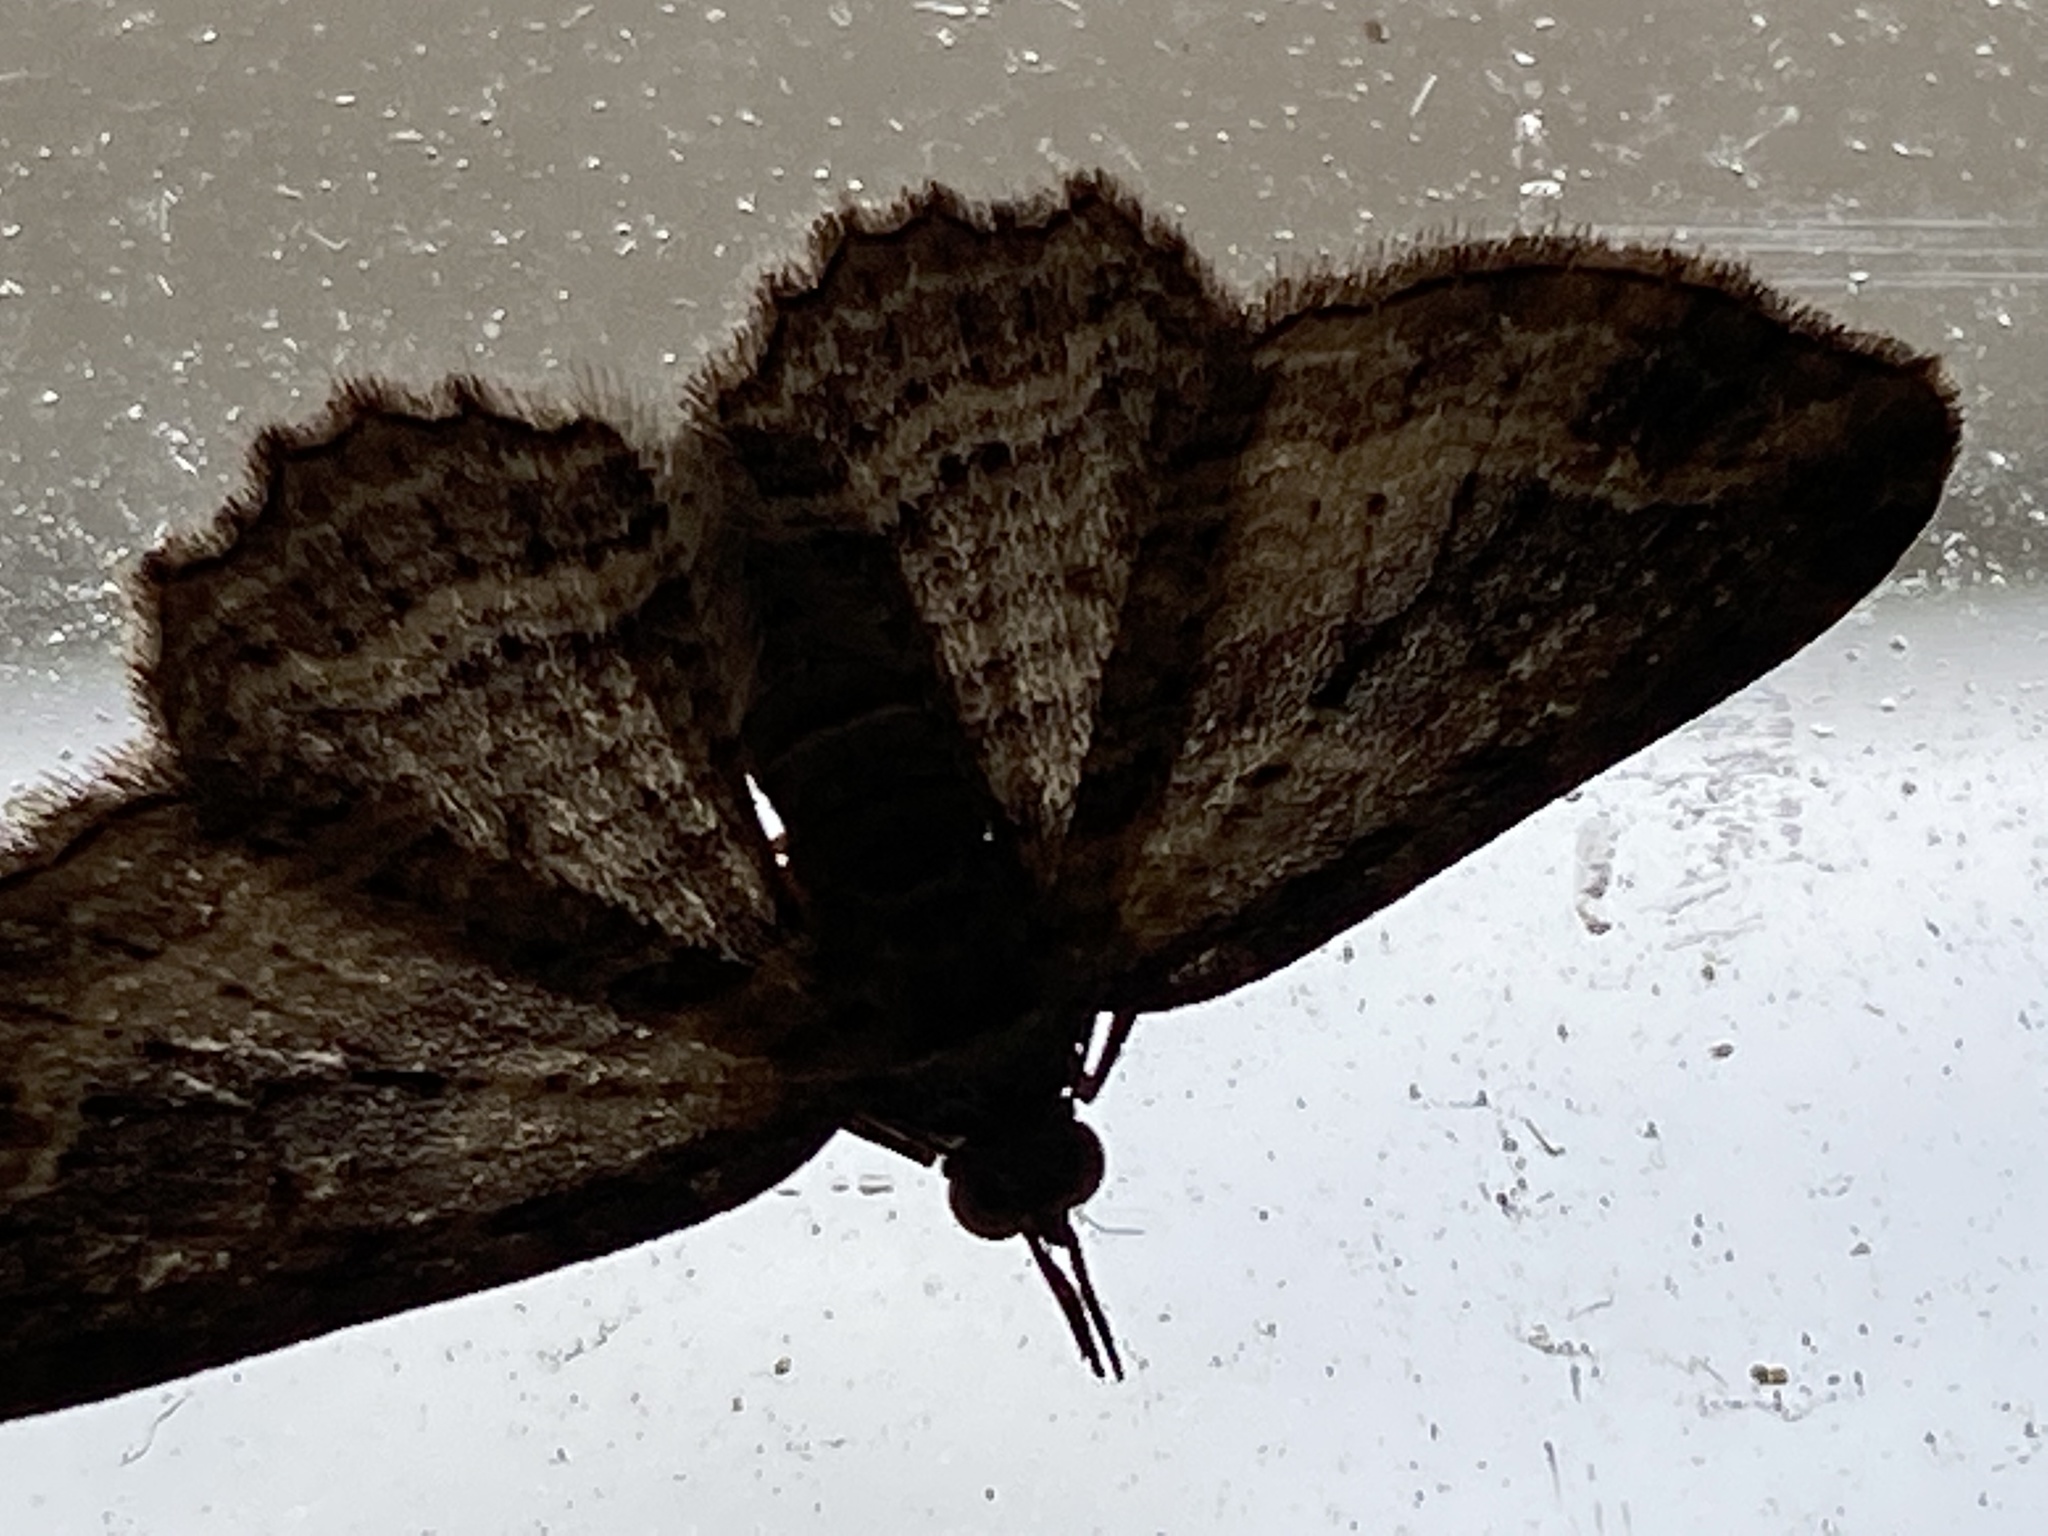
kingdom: Animalia
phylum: Arthropoda
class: Insecta
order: Lepidoptera
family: Geometridae
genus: Chloroclystis
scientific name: Chloroclystis filata
